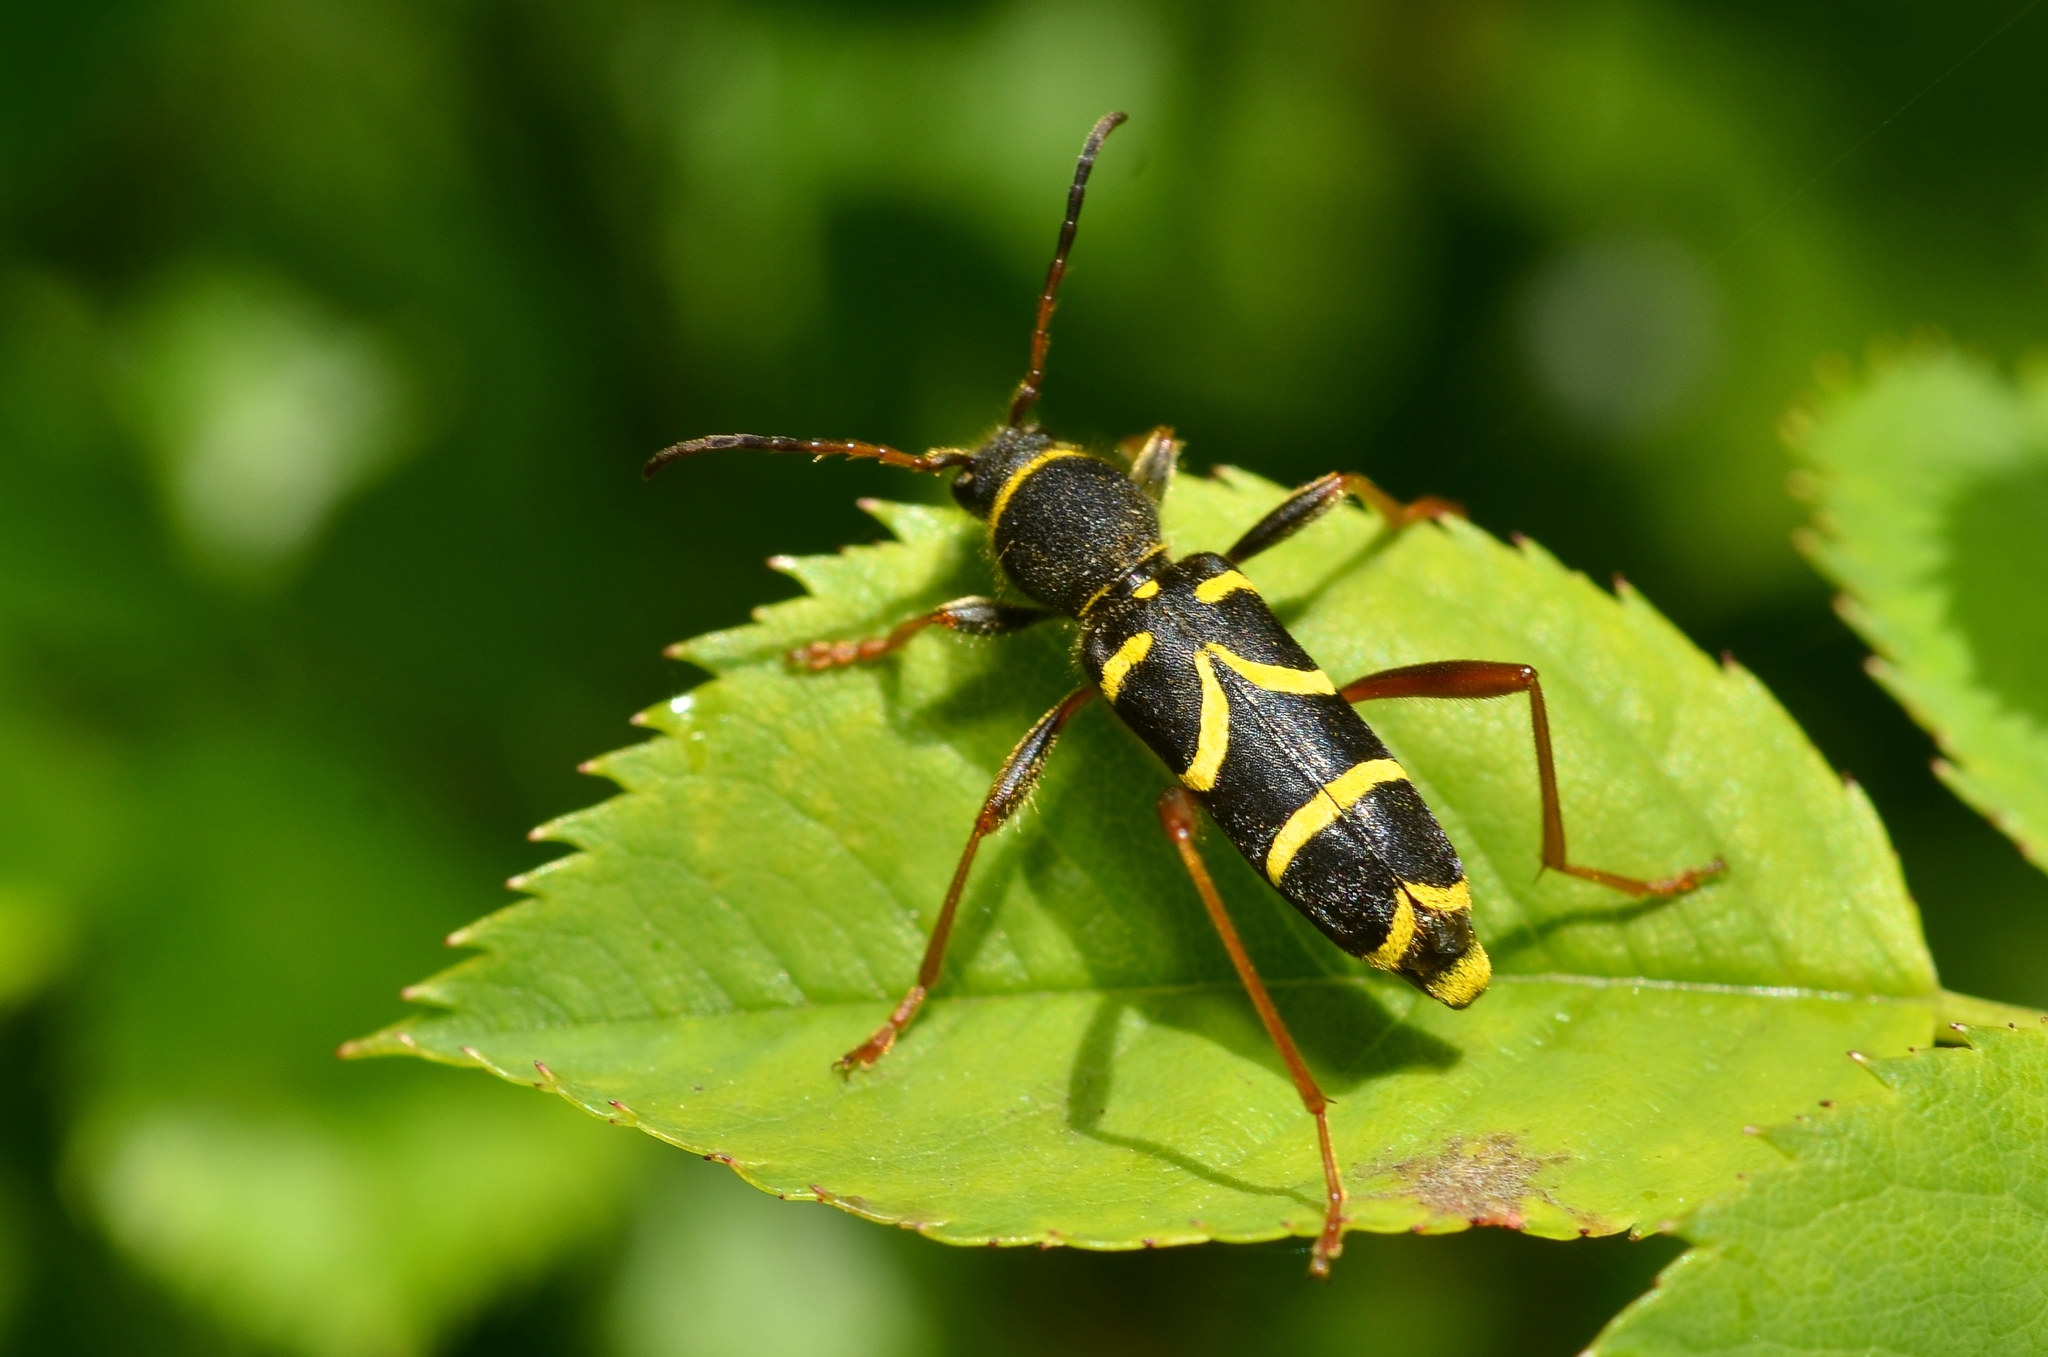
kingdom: Animalia
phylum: Arthropoda
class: Insecta
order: Coleoptera
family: Cerambycidae
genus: Clytus
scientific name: Clytus arietis
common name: Wasp beetle
